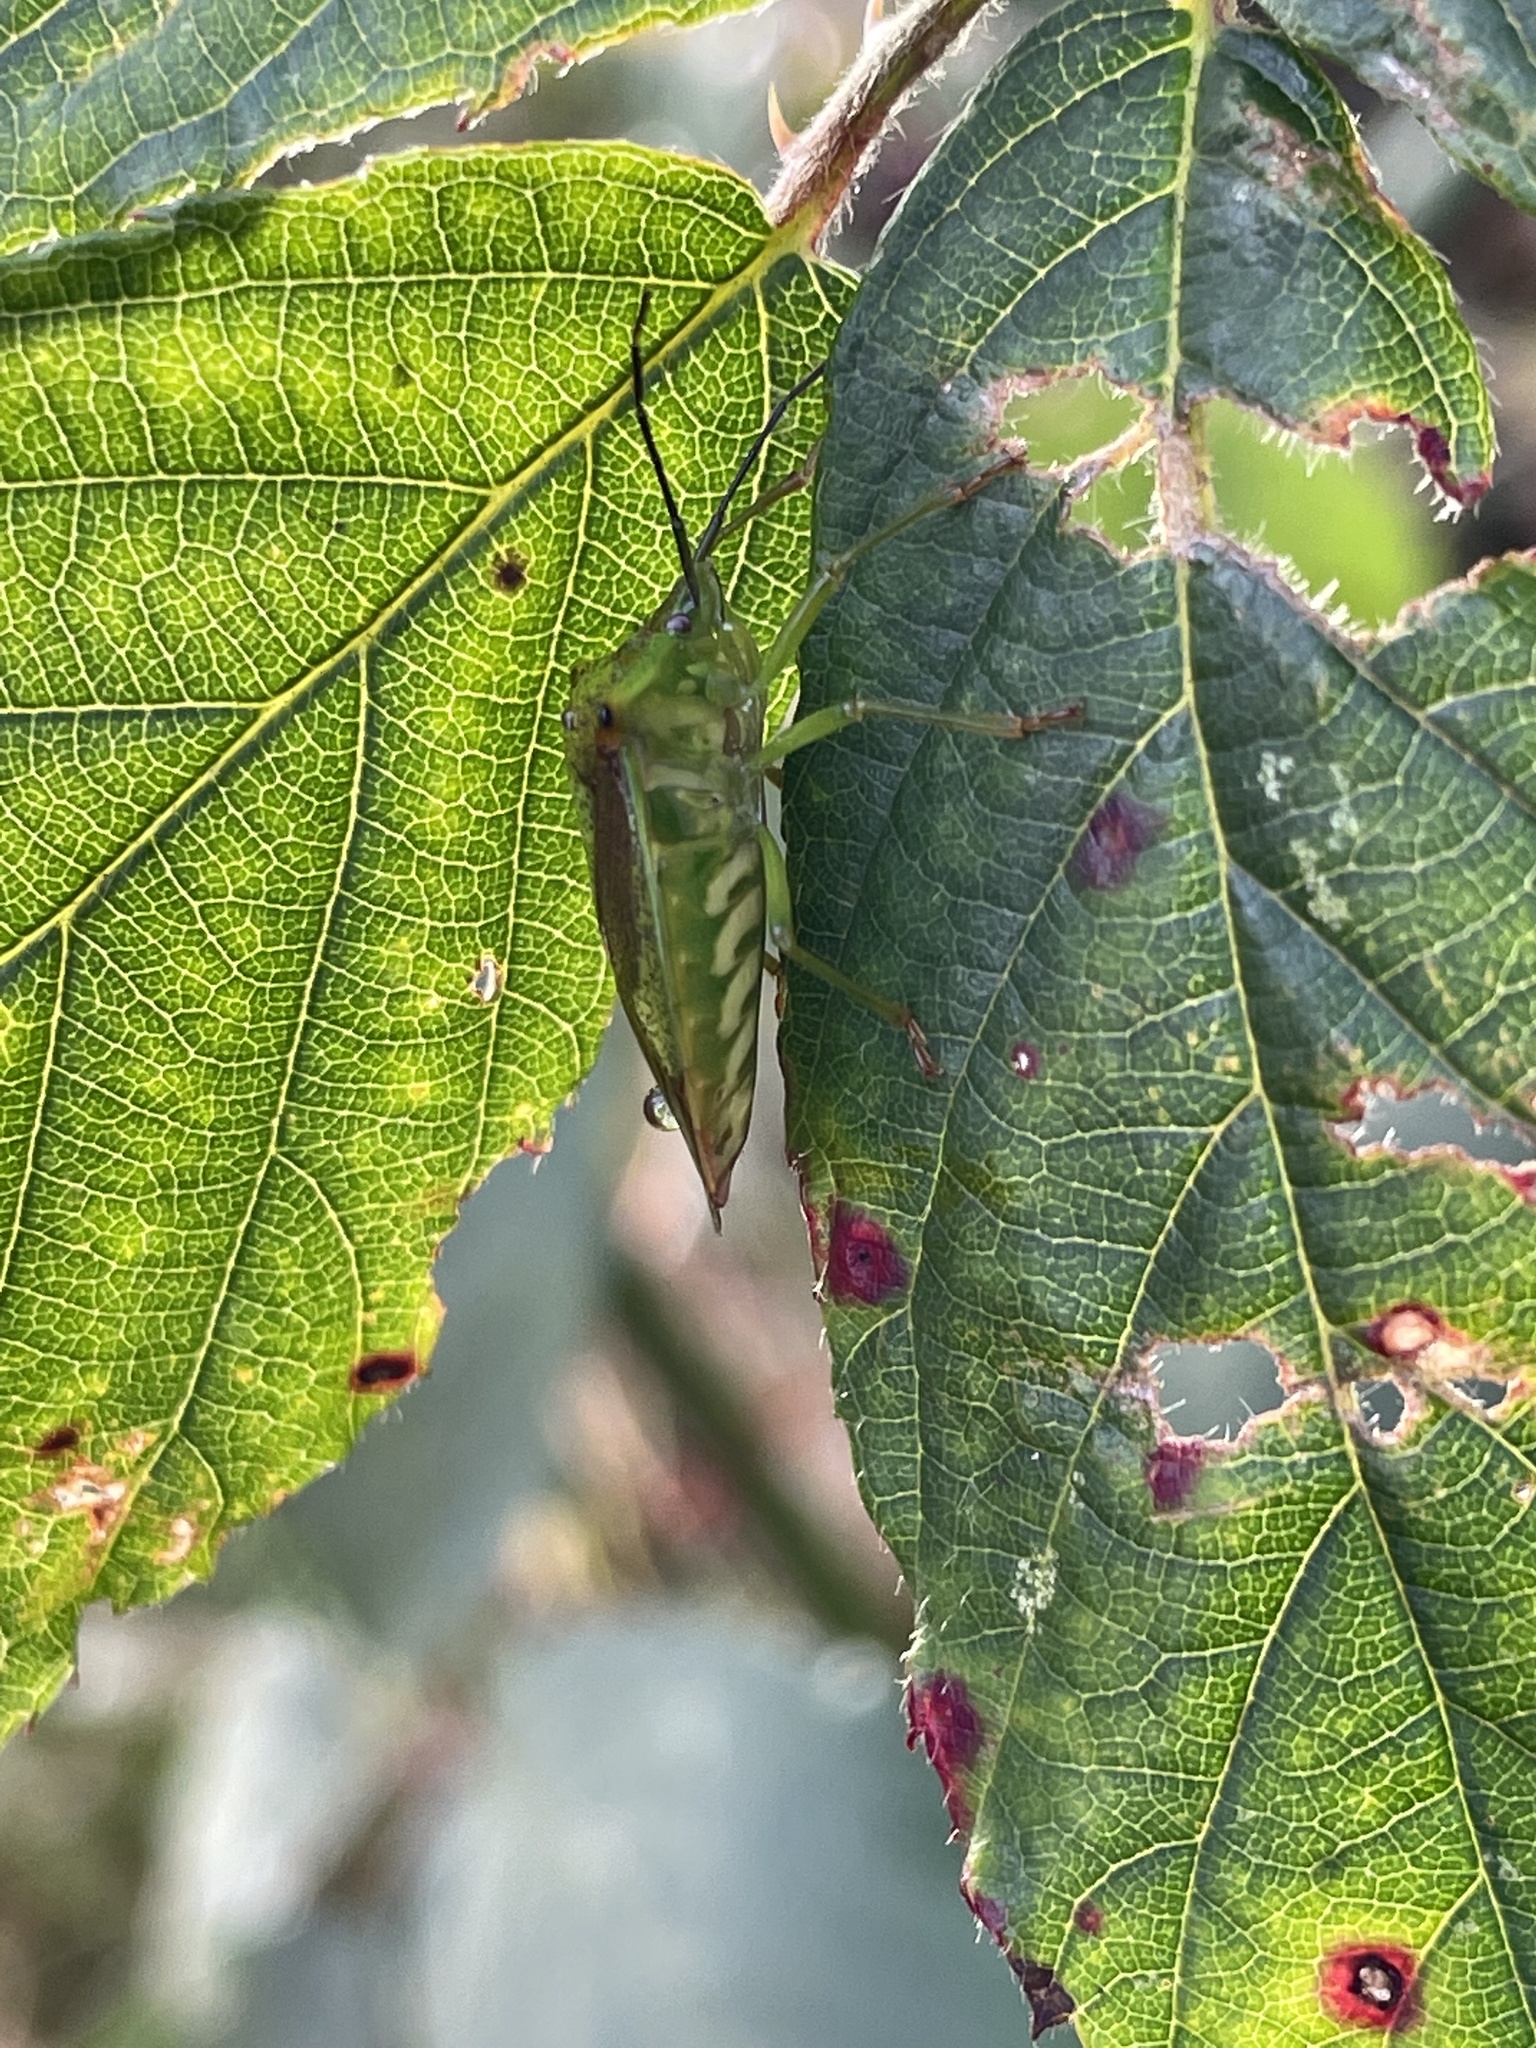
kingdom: Animalia
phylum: Arthropoda
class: Insecta
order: Hemiptera
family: Acanthosomatidae
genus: Acanthosoma
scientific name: Acanthosoma haemorrhoidale
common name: Hawthorn shieldbug
